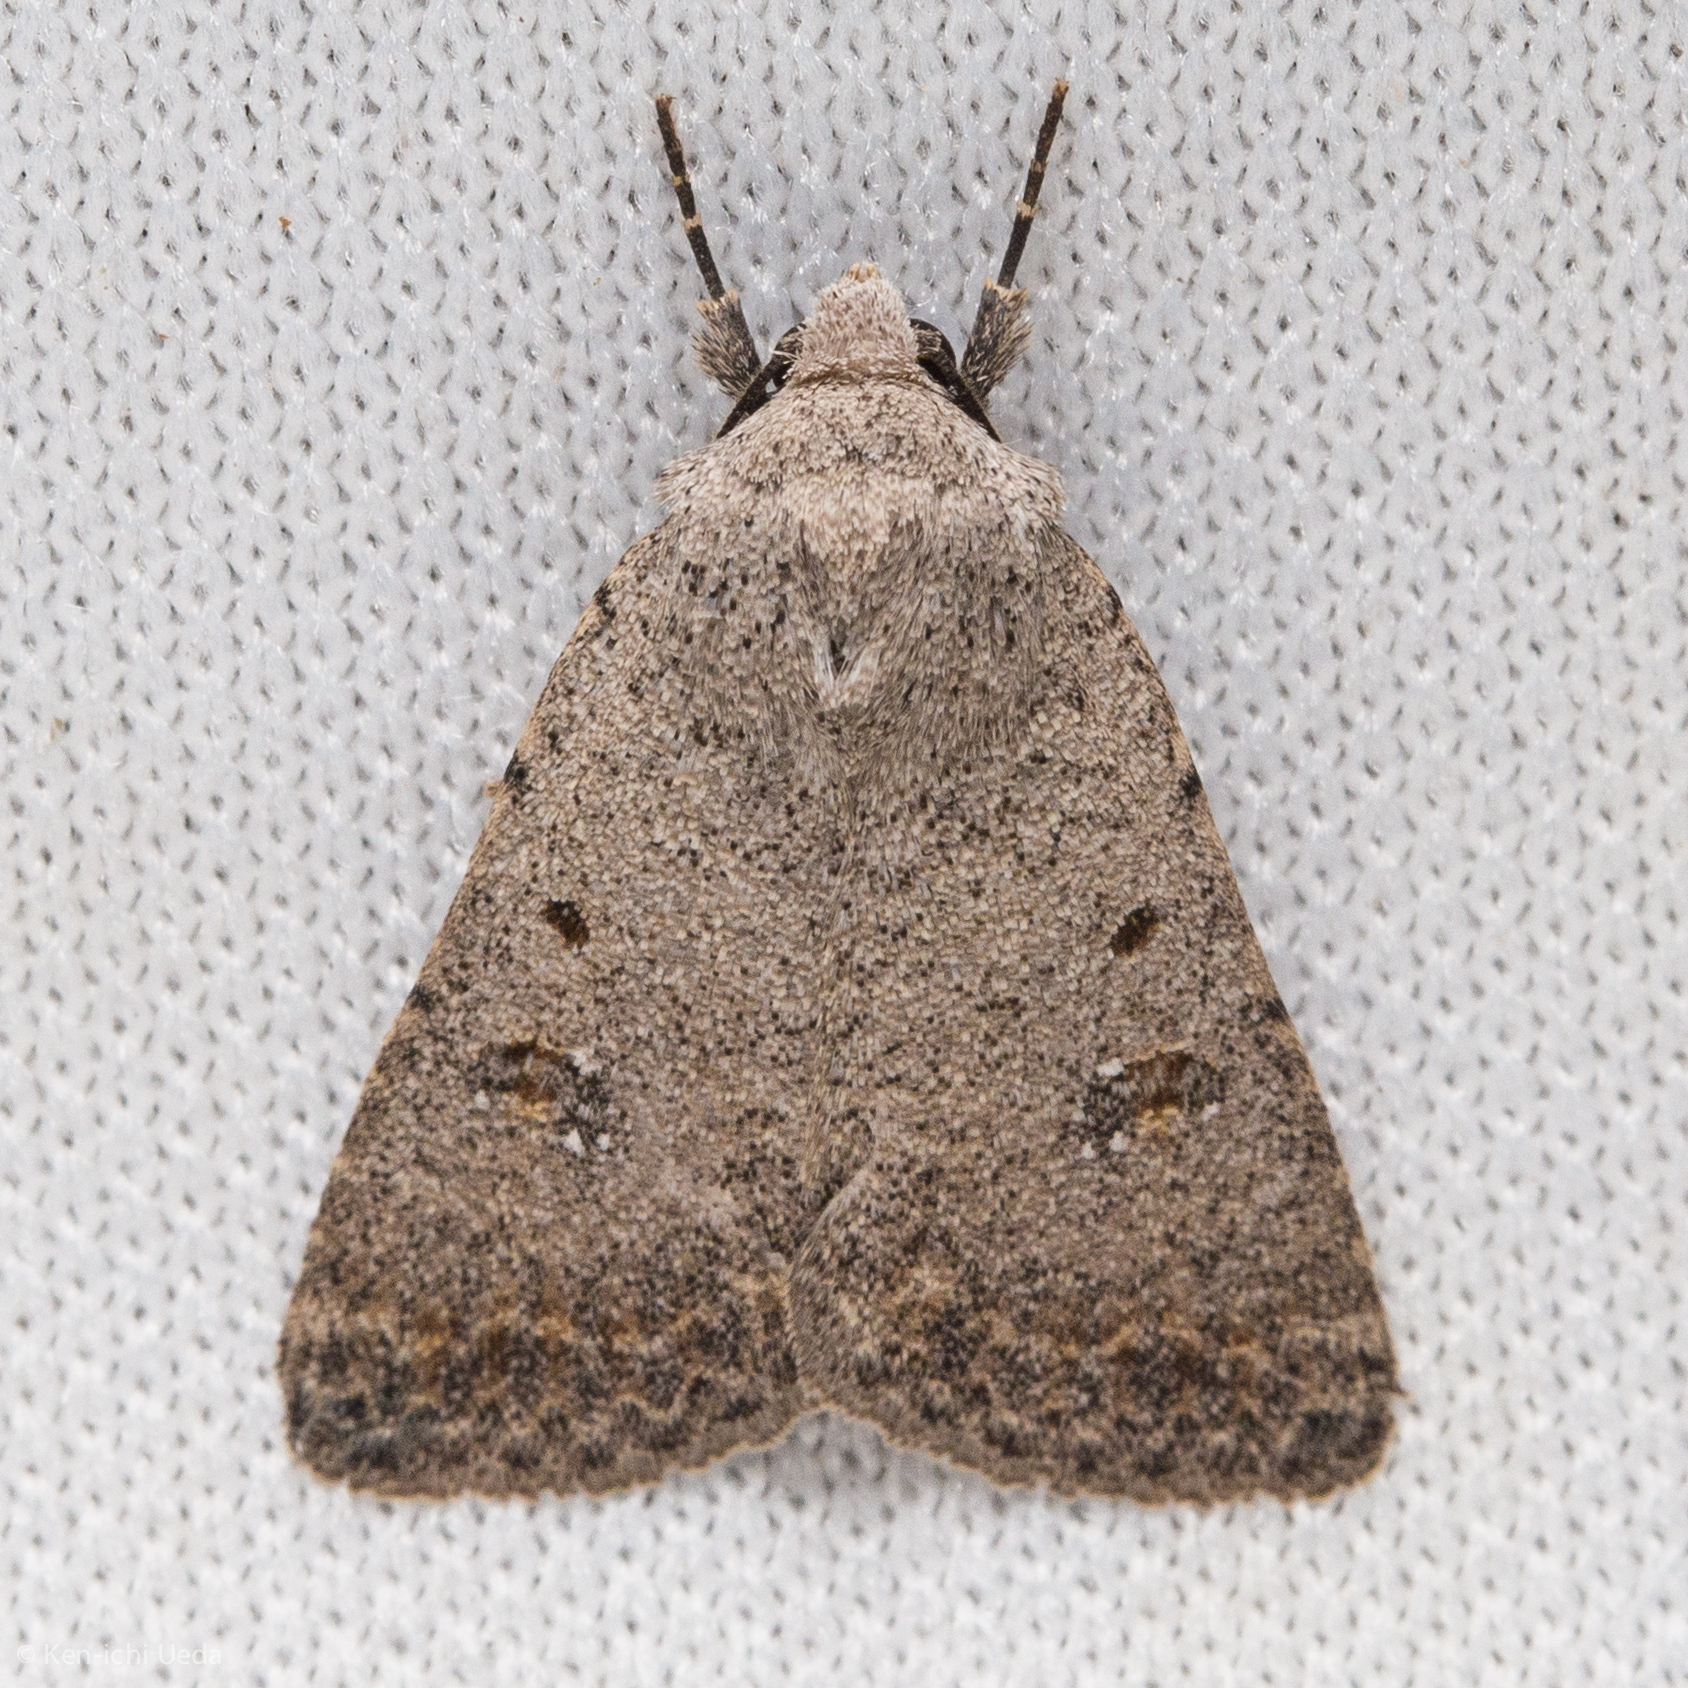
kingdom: Animalia
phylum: Arthropoda
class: Insecta
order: Lepidoptera
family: Noctuidae
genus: Caradrina
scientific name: Caradrina montana
